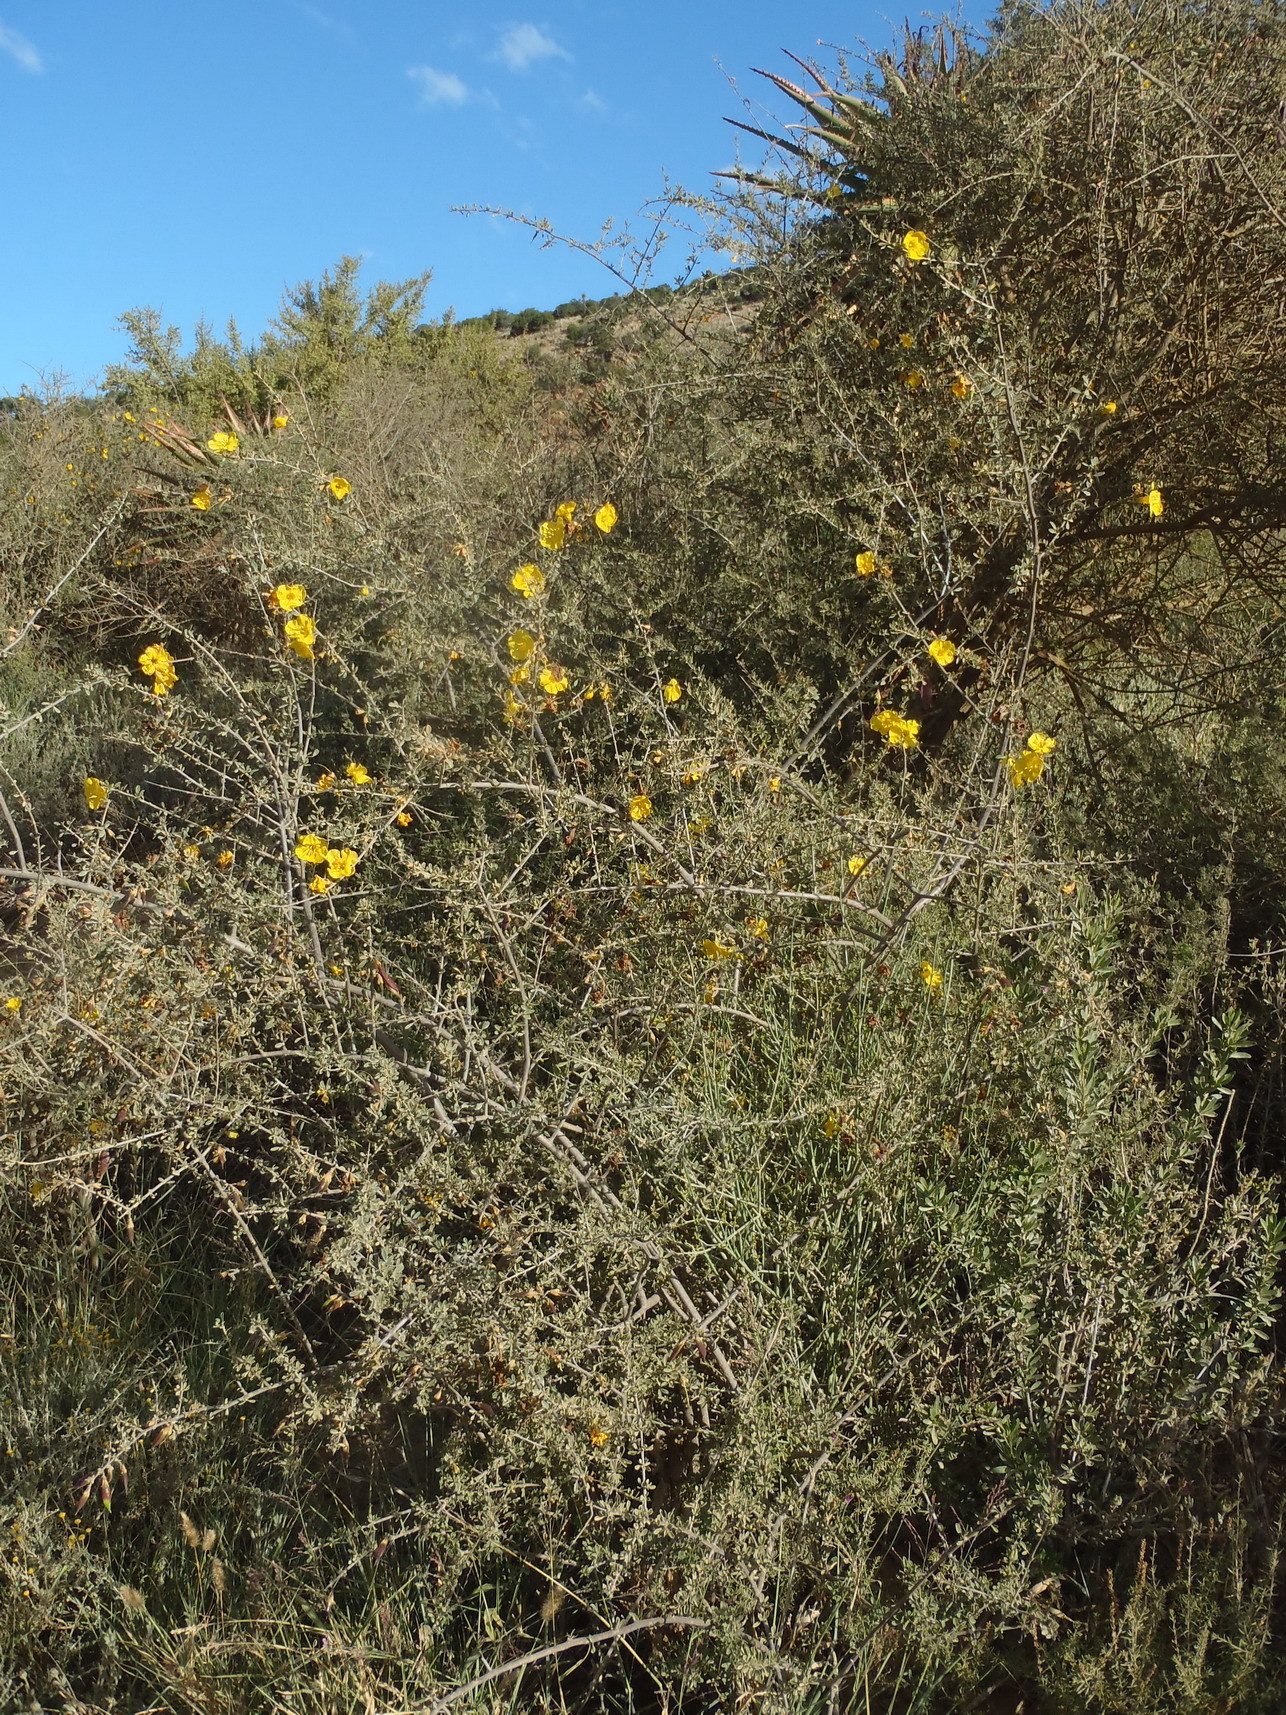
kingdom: Plantae
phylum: Tracheophyta
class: Magnoliopsida
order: Lamiales
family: Bignoniaceae
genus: Rhigozum
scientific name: Rhigozum obovatum
